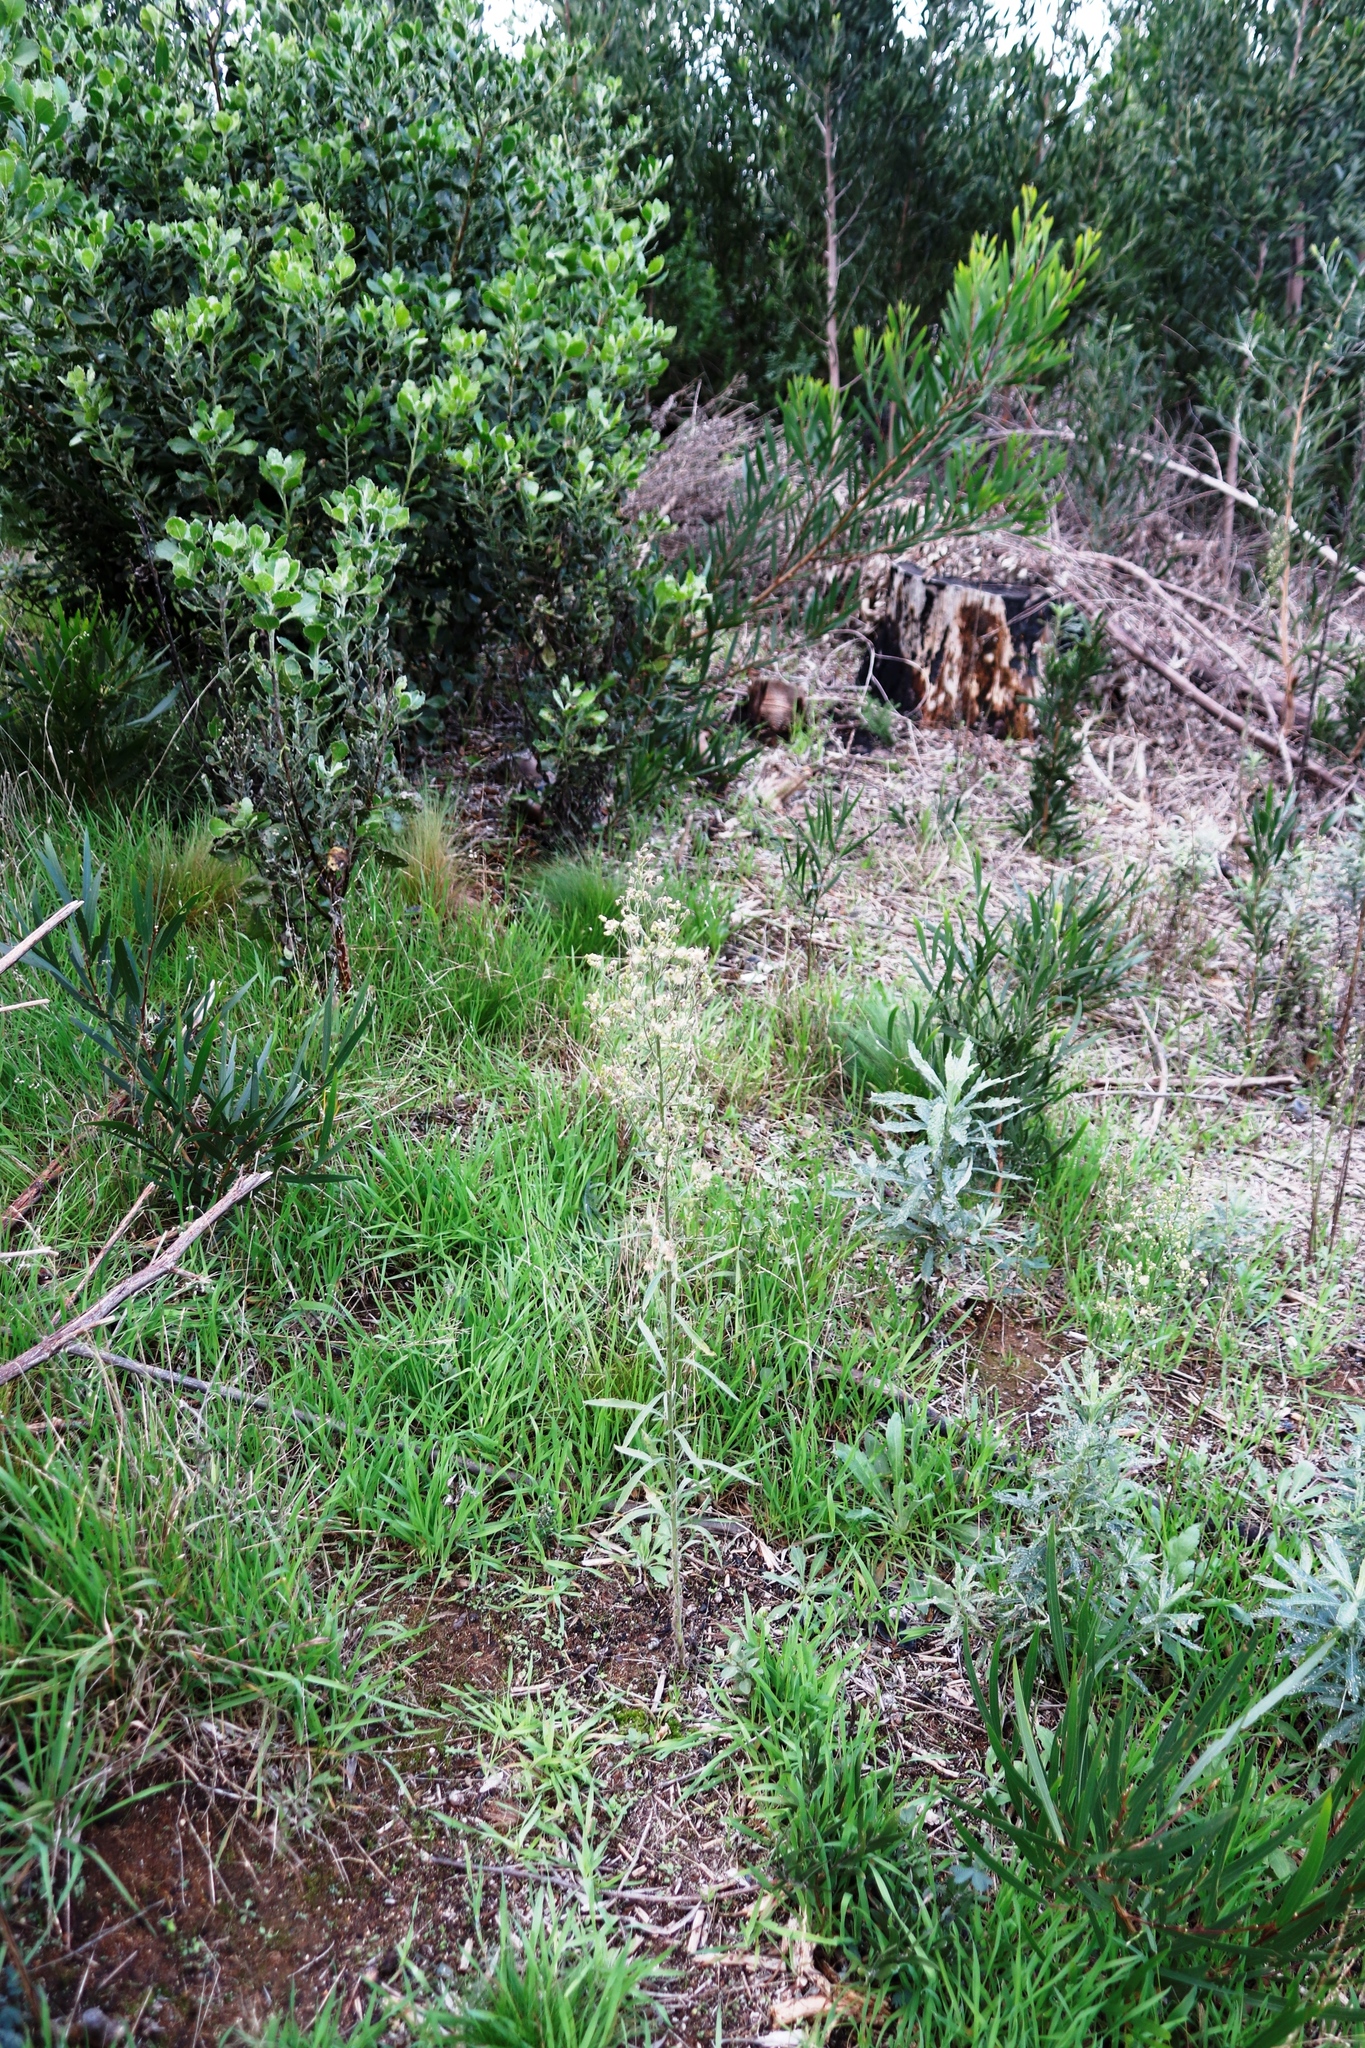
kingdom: Plantae
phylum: Tracheophyta
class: Magnoliopsida
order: Asterales
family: Asteraceae
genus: Erigeron
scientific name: Erigeron sumatrensis
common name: Daisy
